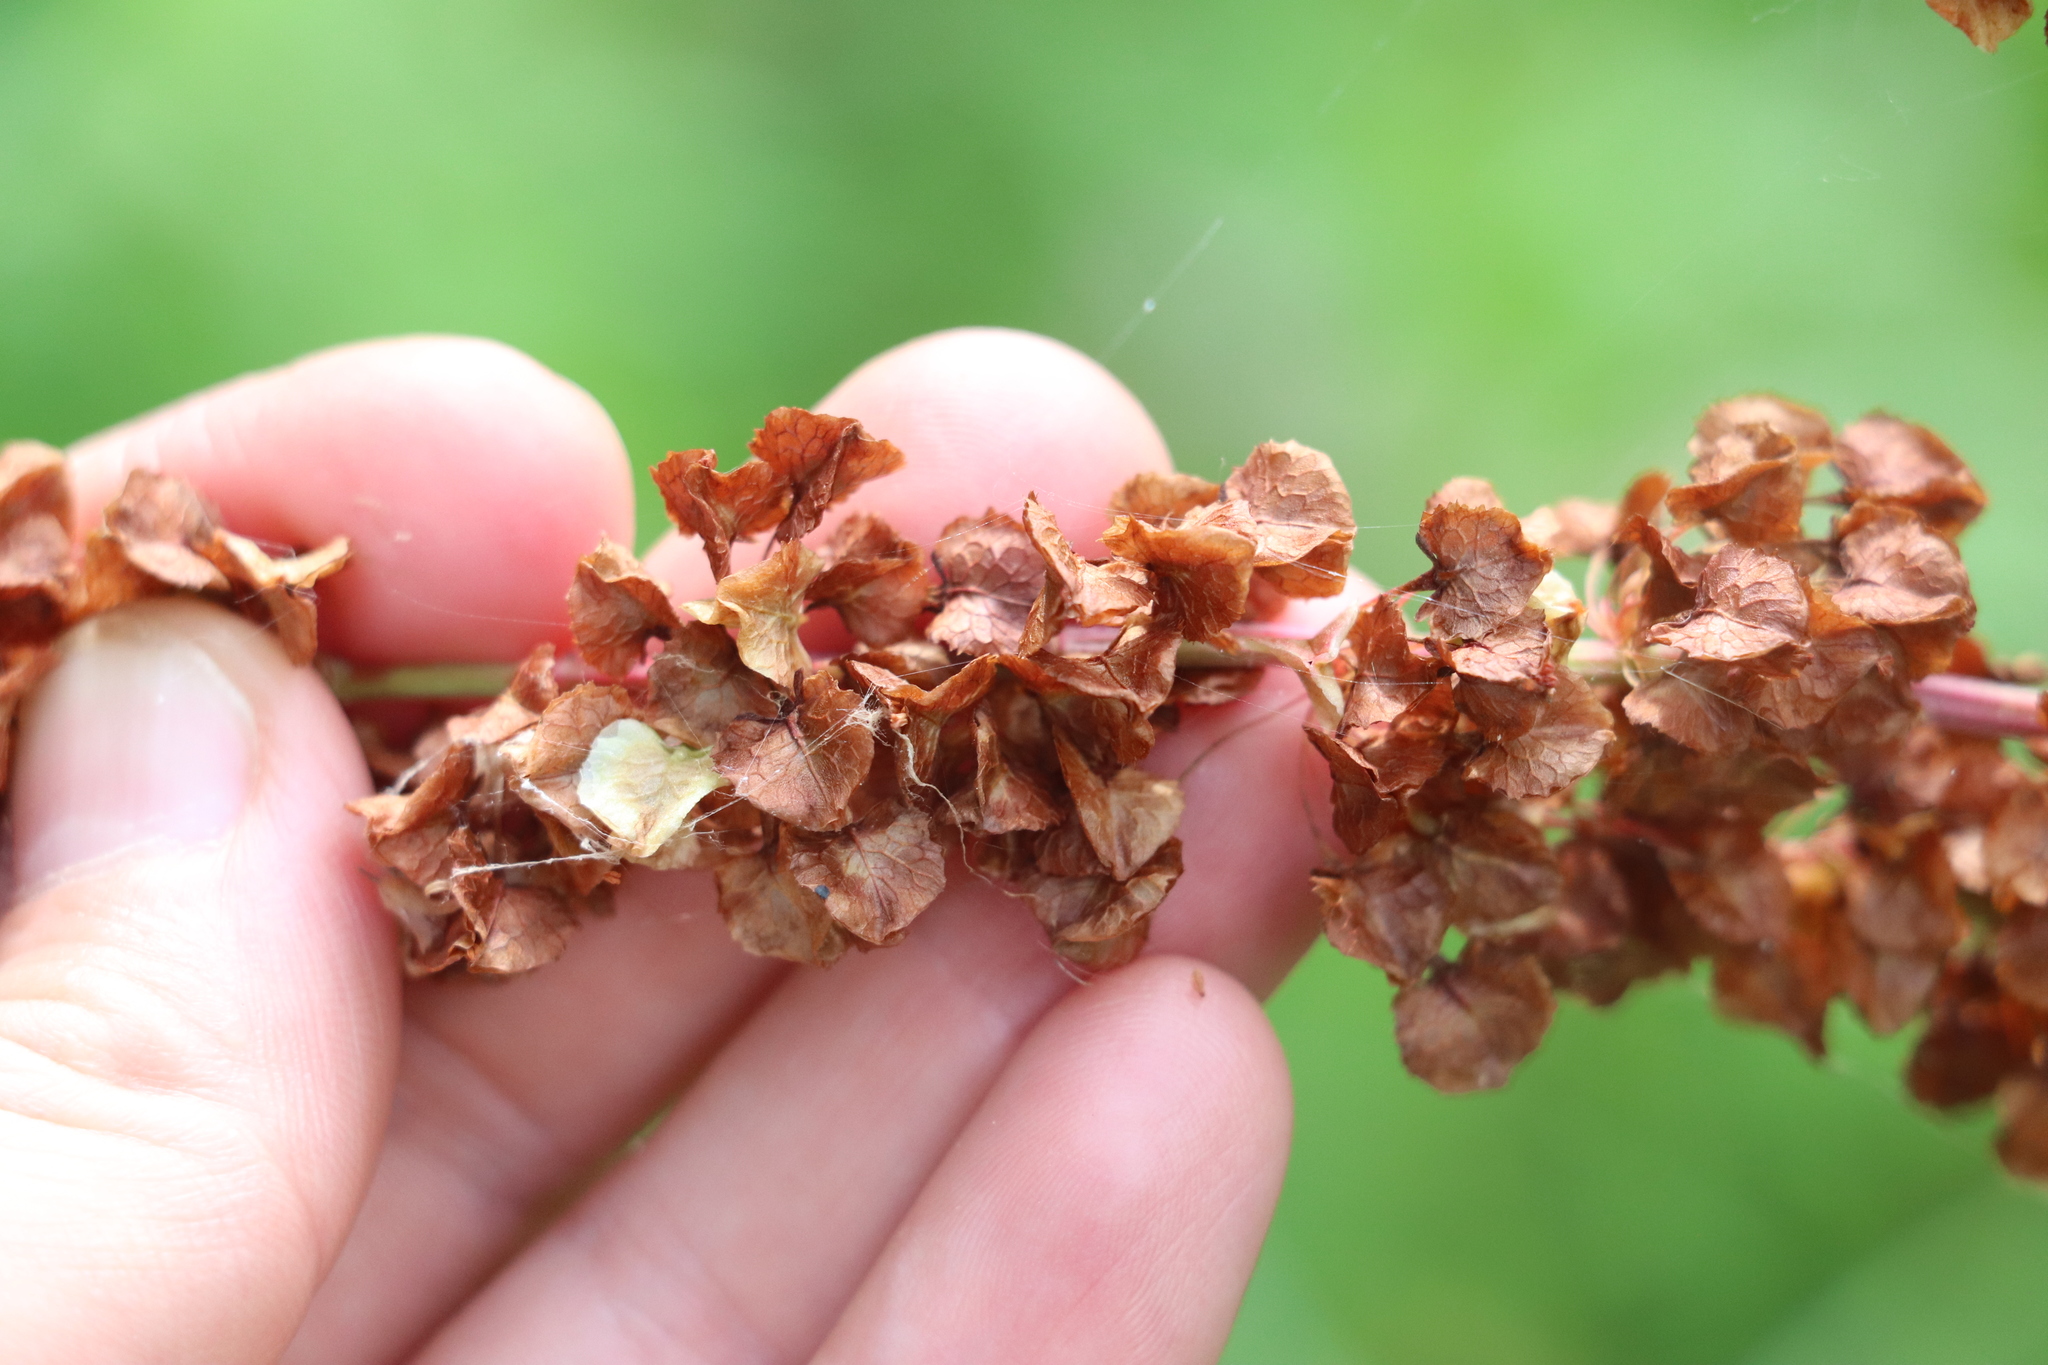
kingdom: Plantae
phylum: Tracheophyta
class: Magnoliopsida
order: Caryophyllales
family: Polygonaceae
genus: Rumex
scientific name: Rumex aquaticus
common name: Scottish dock
